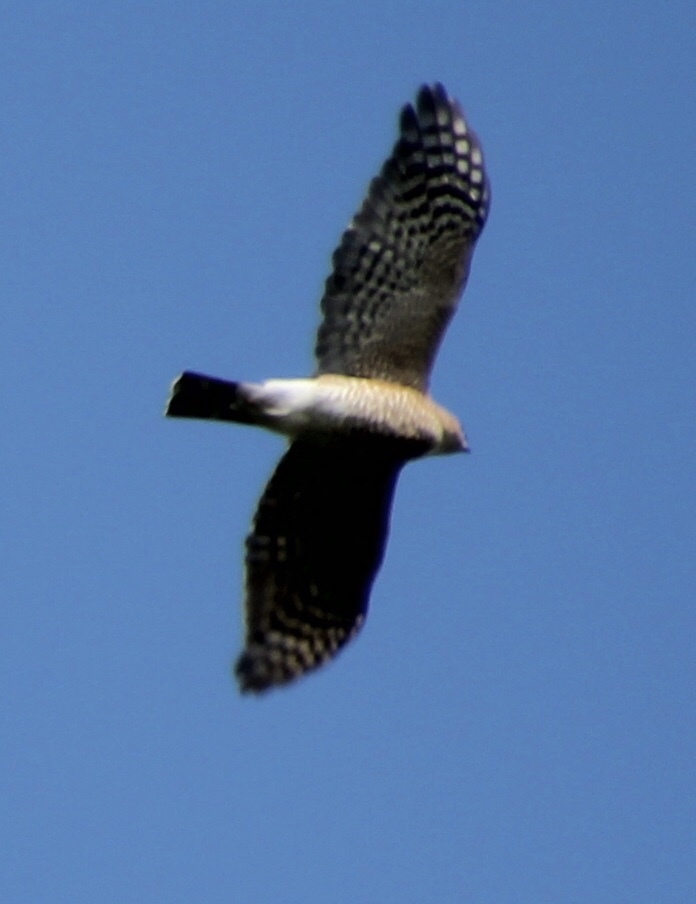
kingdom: Animalia
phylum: Chordata
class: Aves
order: Accipitriformes
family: Accipitridae
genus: Accipiter
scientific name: Accipiter striatus
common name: Sharp-shinned hawk
